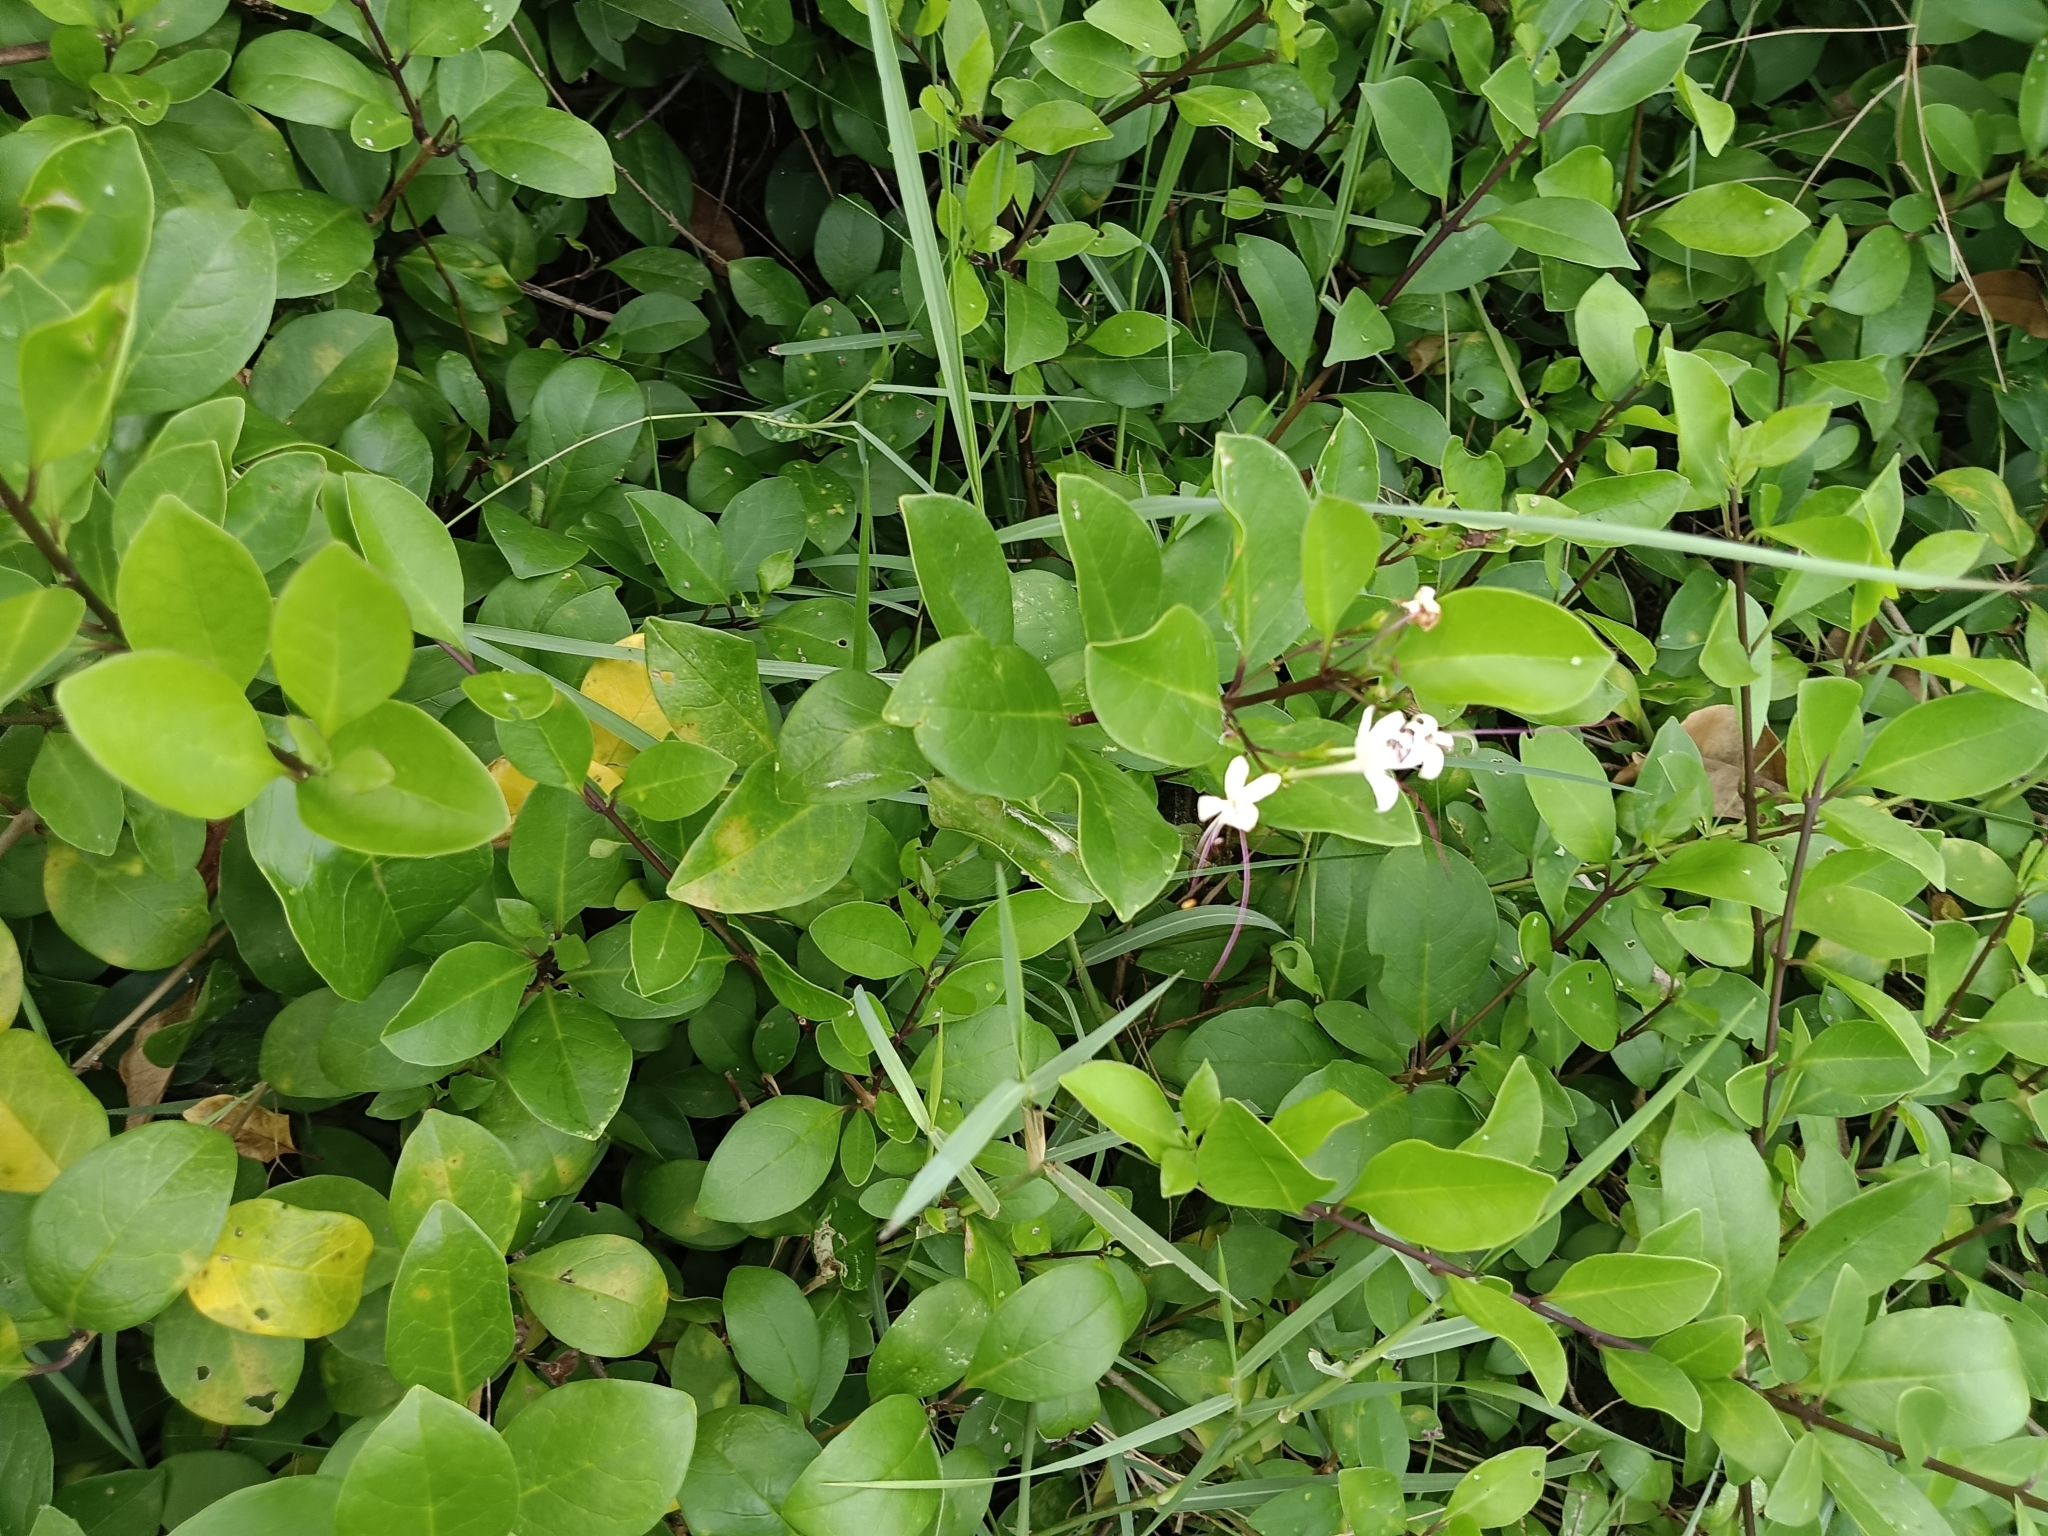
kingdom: Plantae
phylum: Tracheophyta
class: Magnoliopsida
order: Lamiales
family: Lamiaceae
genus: Volkameria
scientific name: Volkameria inermis
